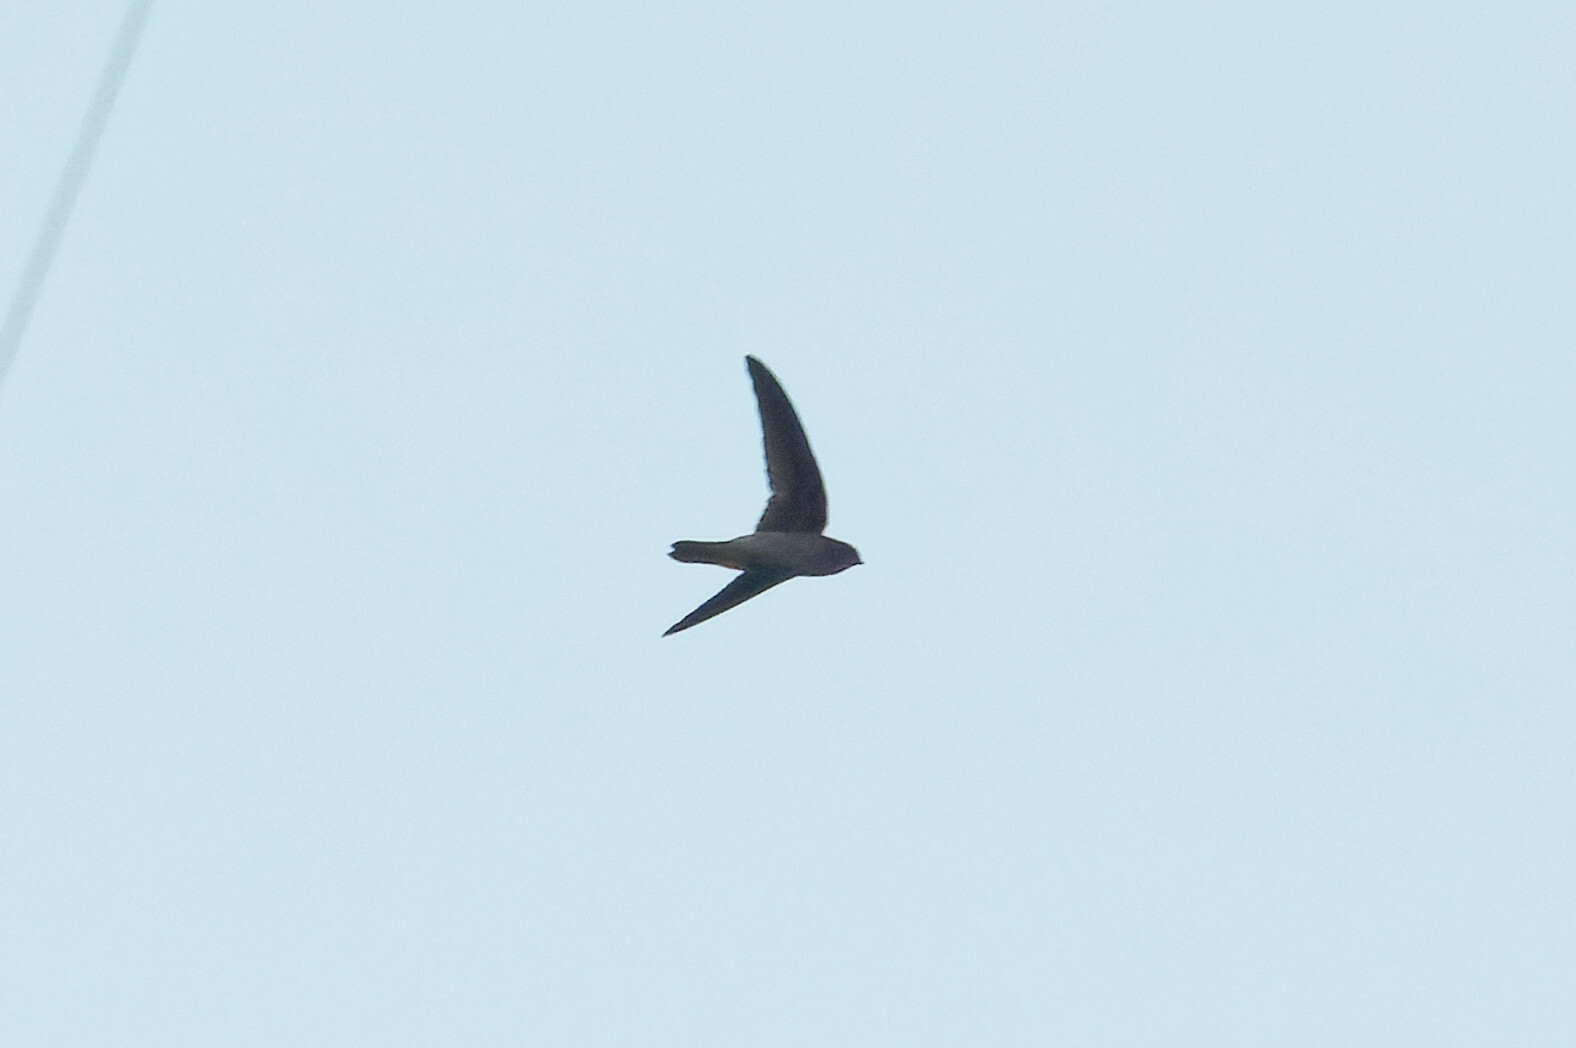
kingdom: Animalia
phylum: Chordata
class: Aves
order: Apodiformes
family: Apodidae
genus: Aerodramus
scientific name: Aerodramus germani
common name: Germain's swiftlet
